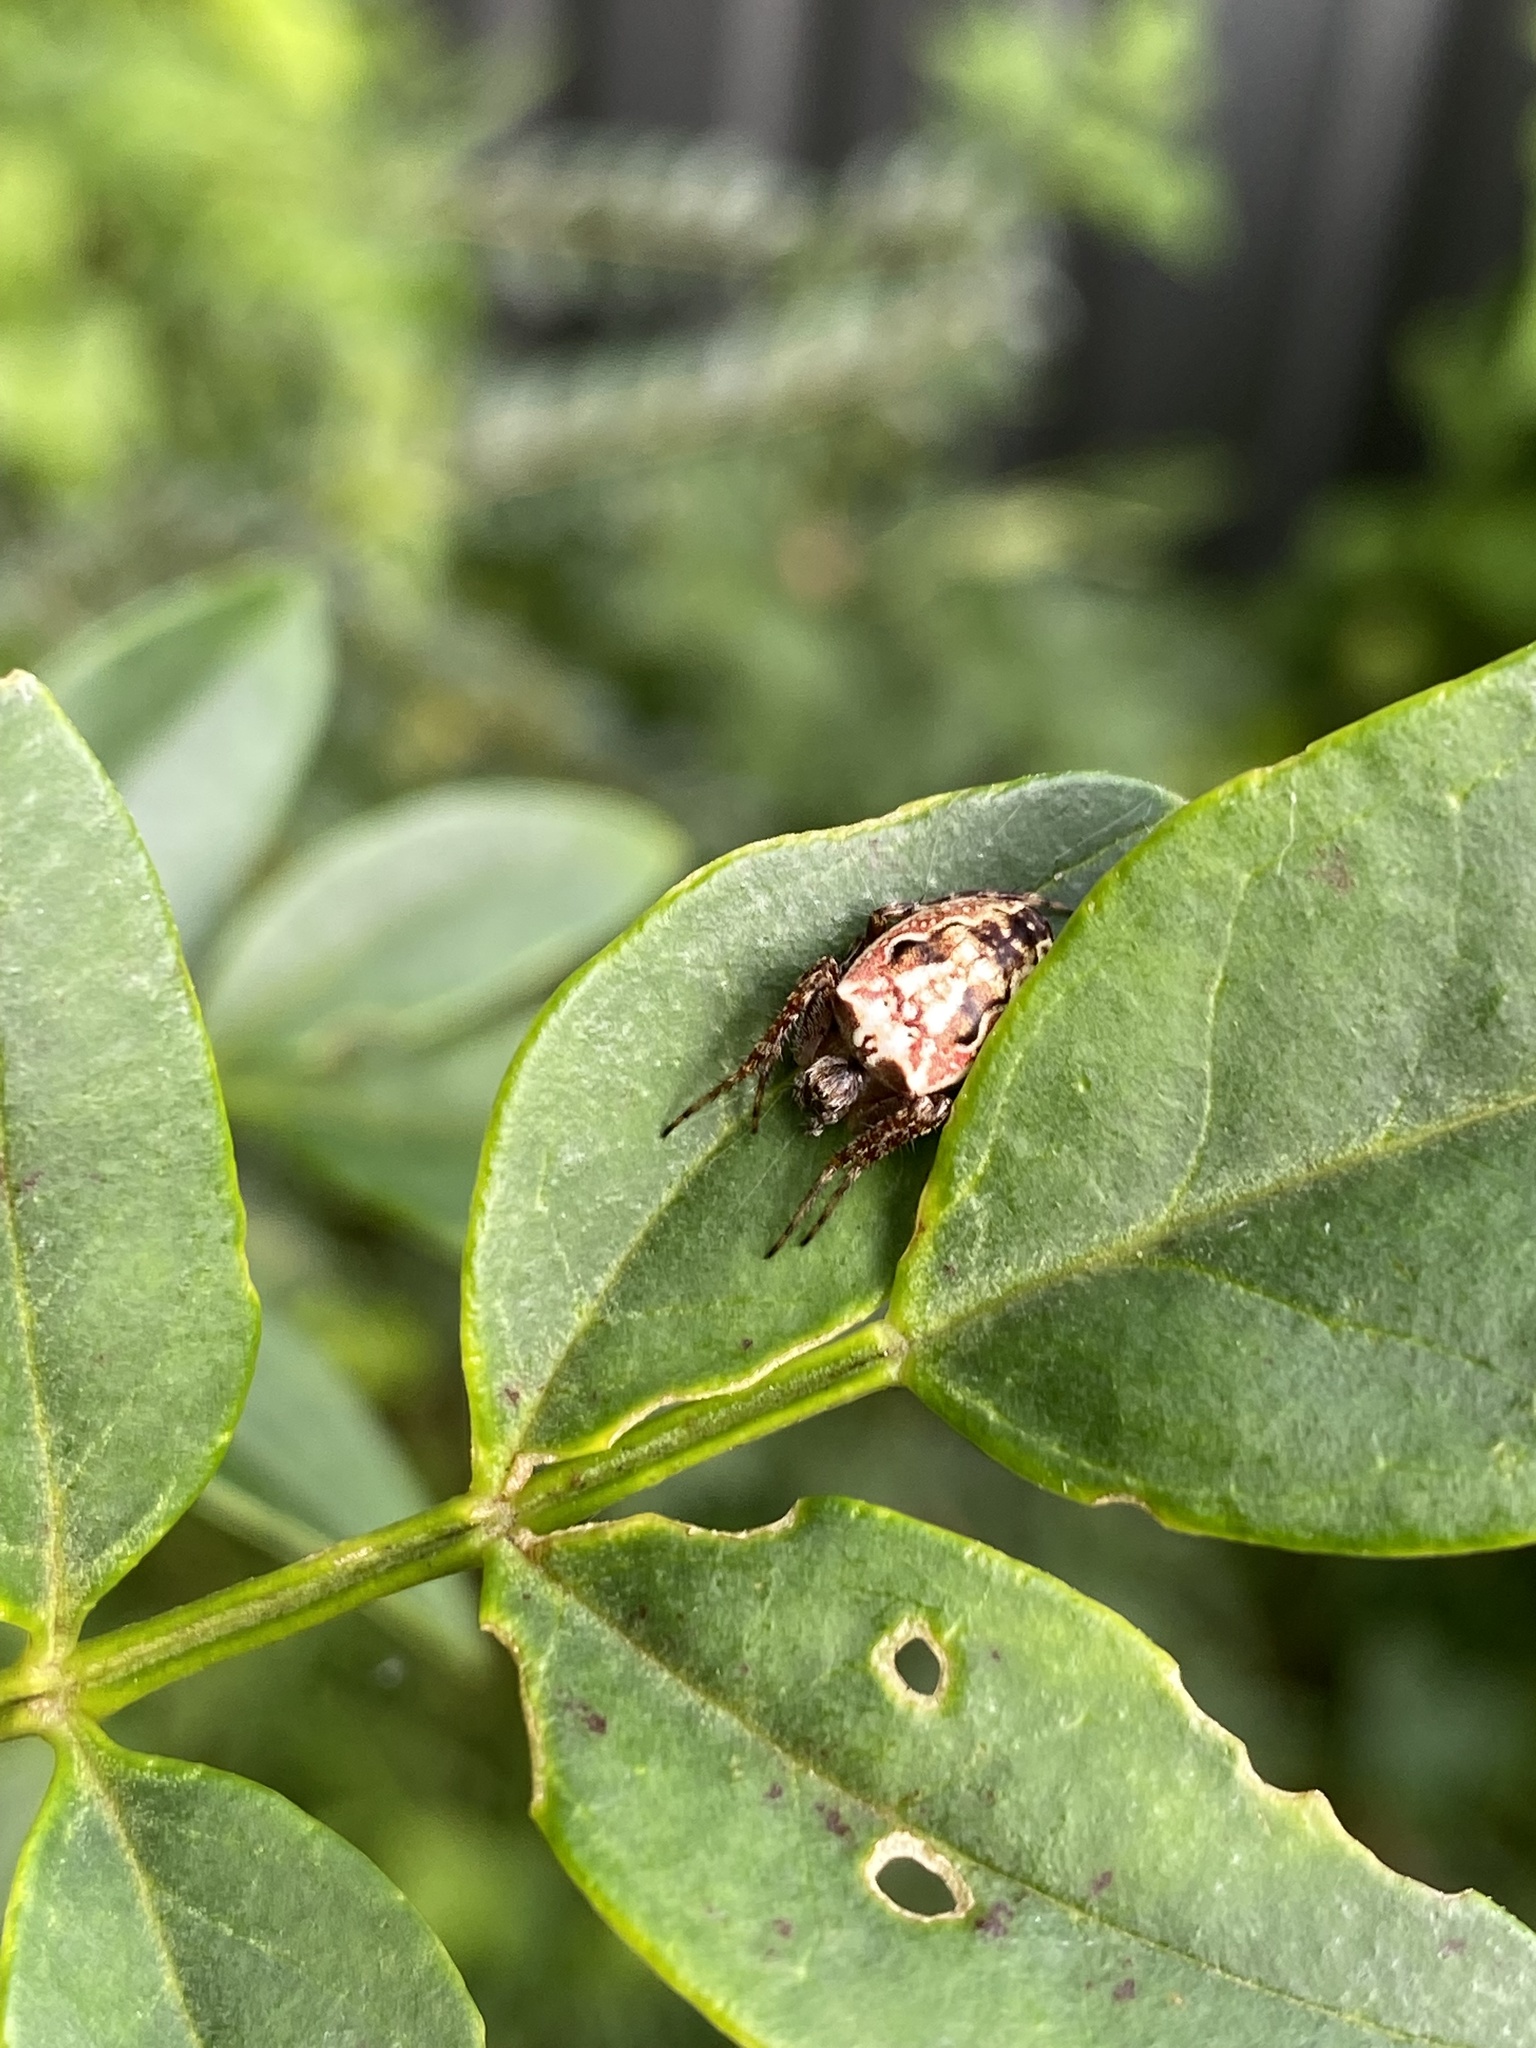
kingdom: Animalia
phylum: Arthropoda
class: Arachnida
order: Araneae
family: Araneidae
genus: Plebs
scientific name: Plebs eburnus
